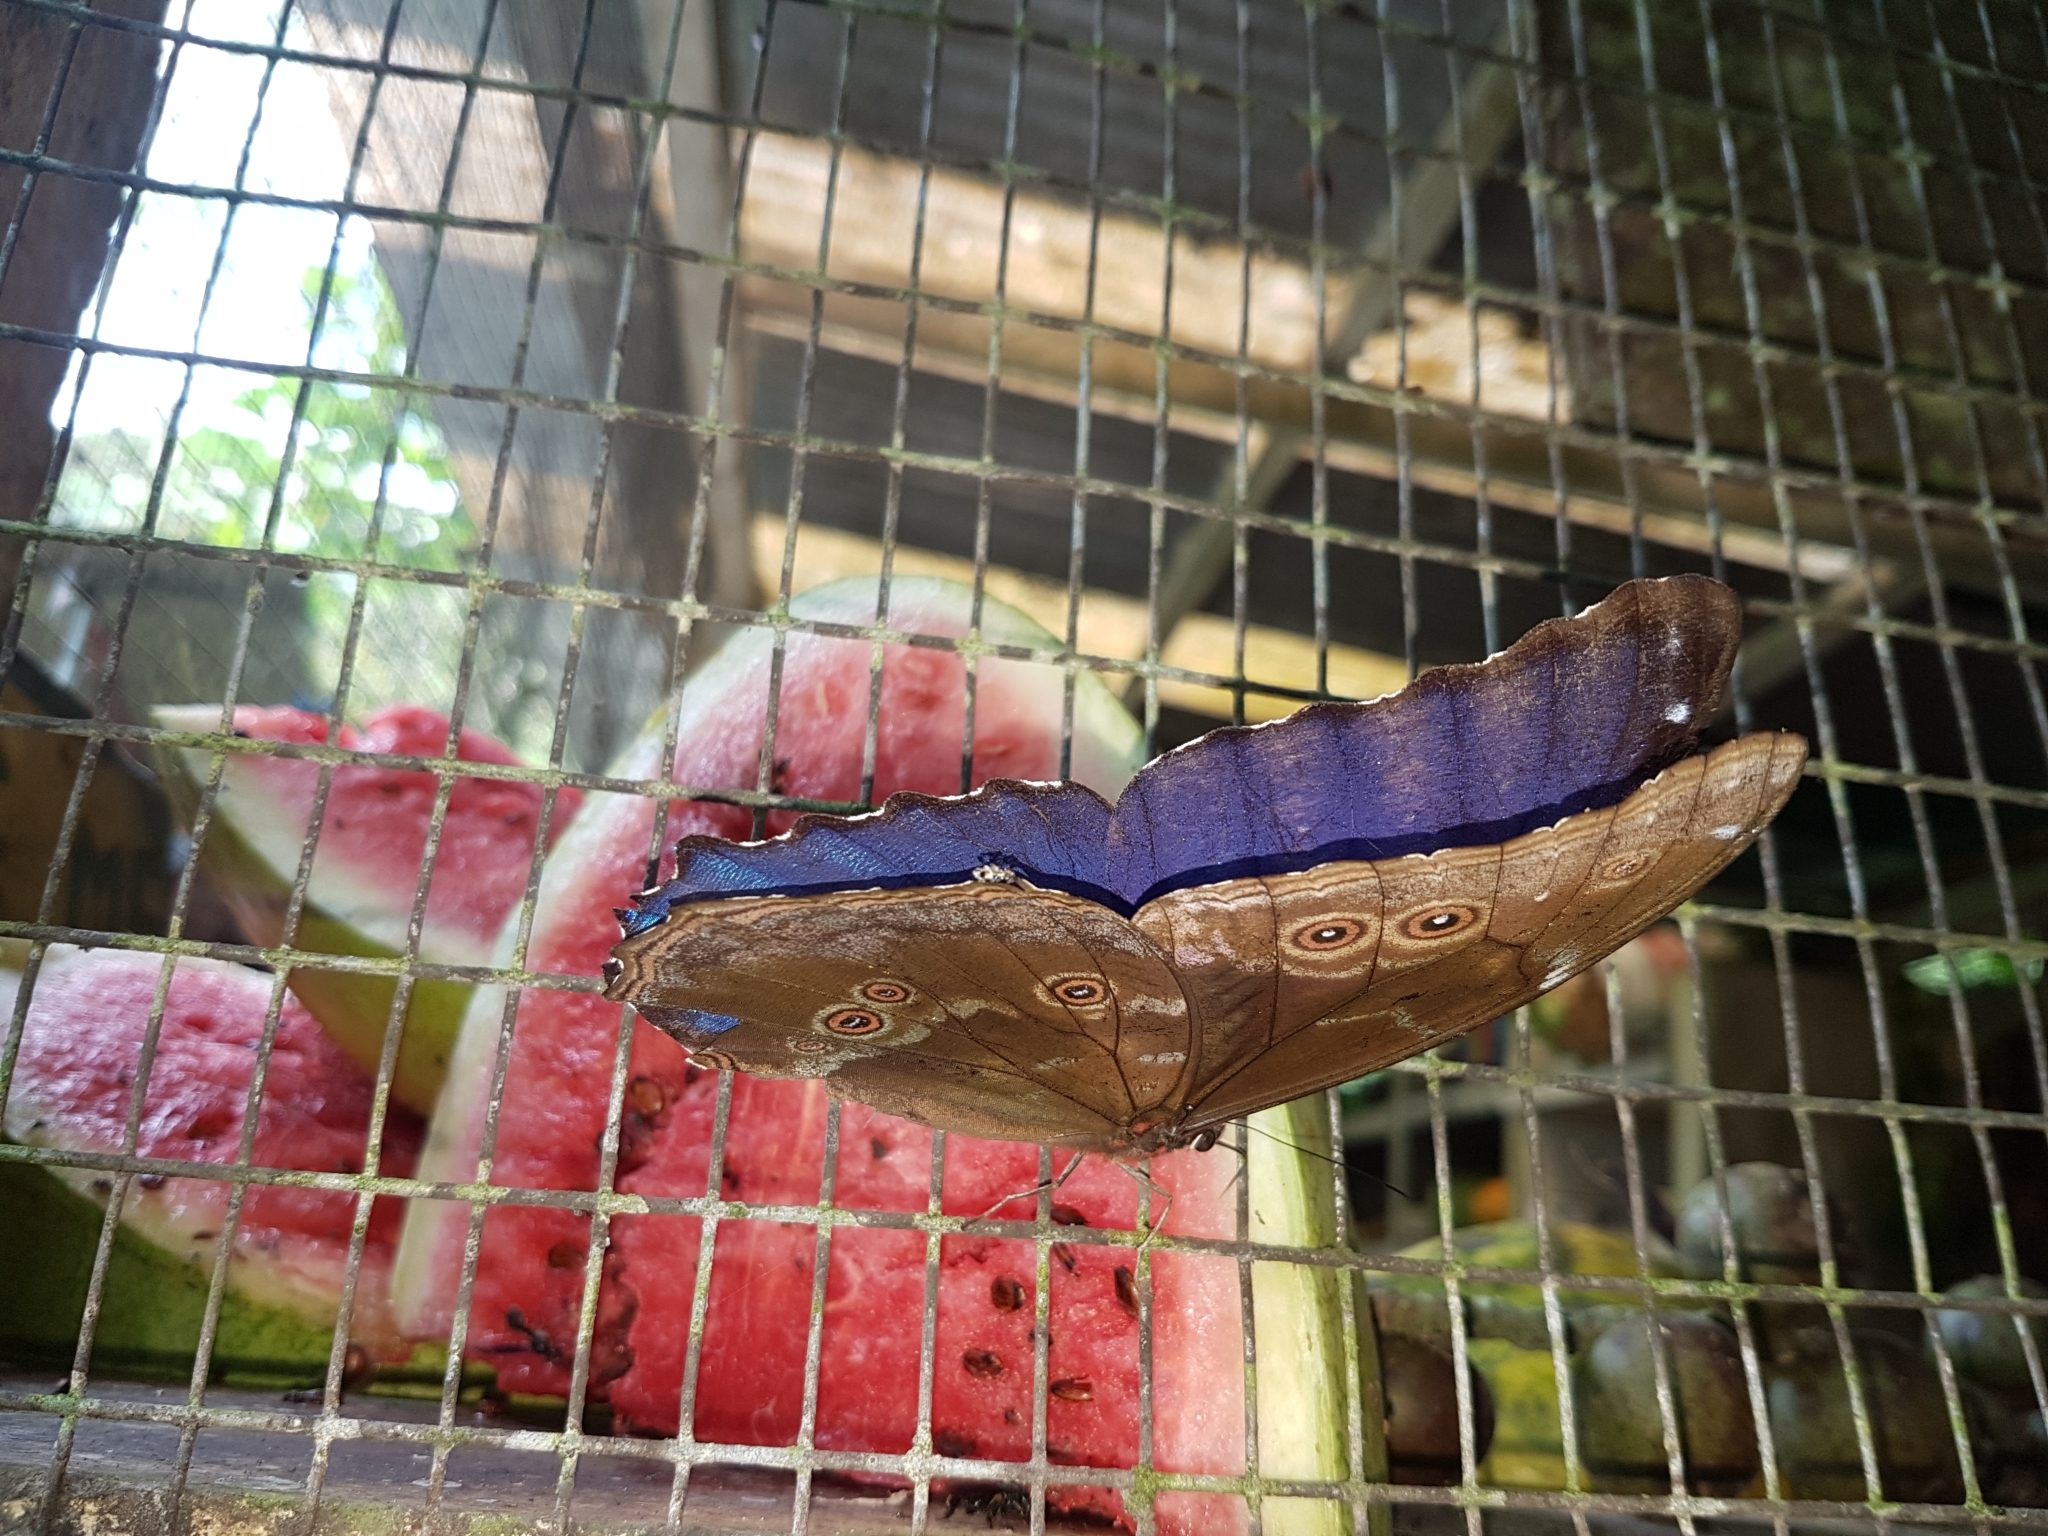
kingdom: Animalia
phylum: Arthropoda
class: Insecta
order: Lepidoptera
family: Nymphalidae
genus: Morpho
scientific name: Morpho menelaus
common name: Menelaus morpho
